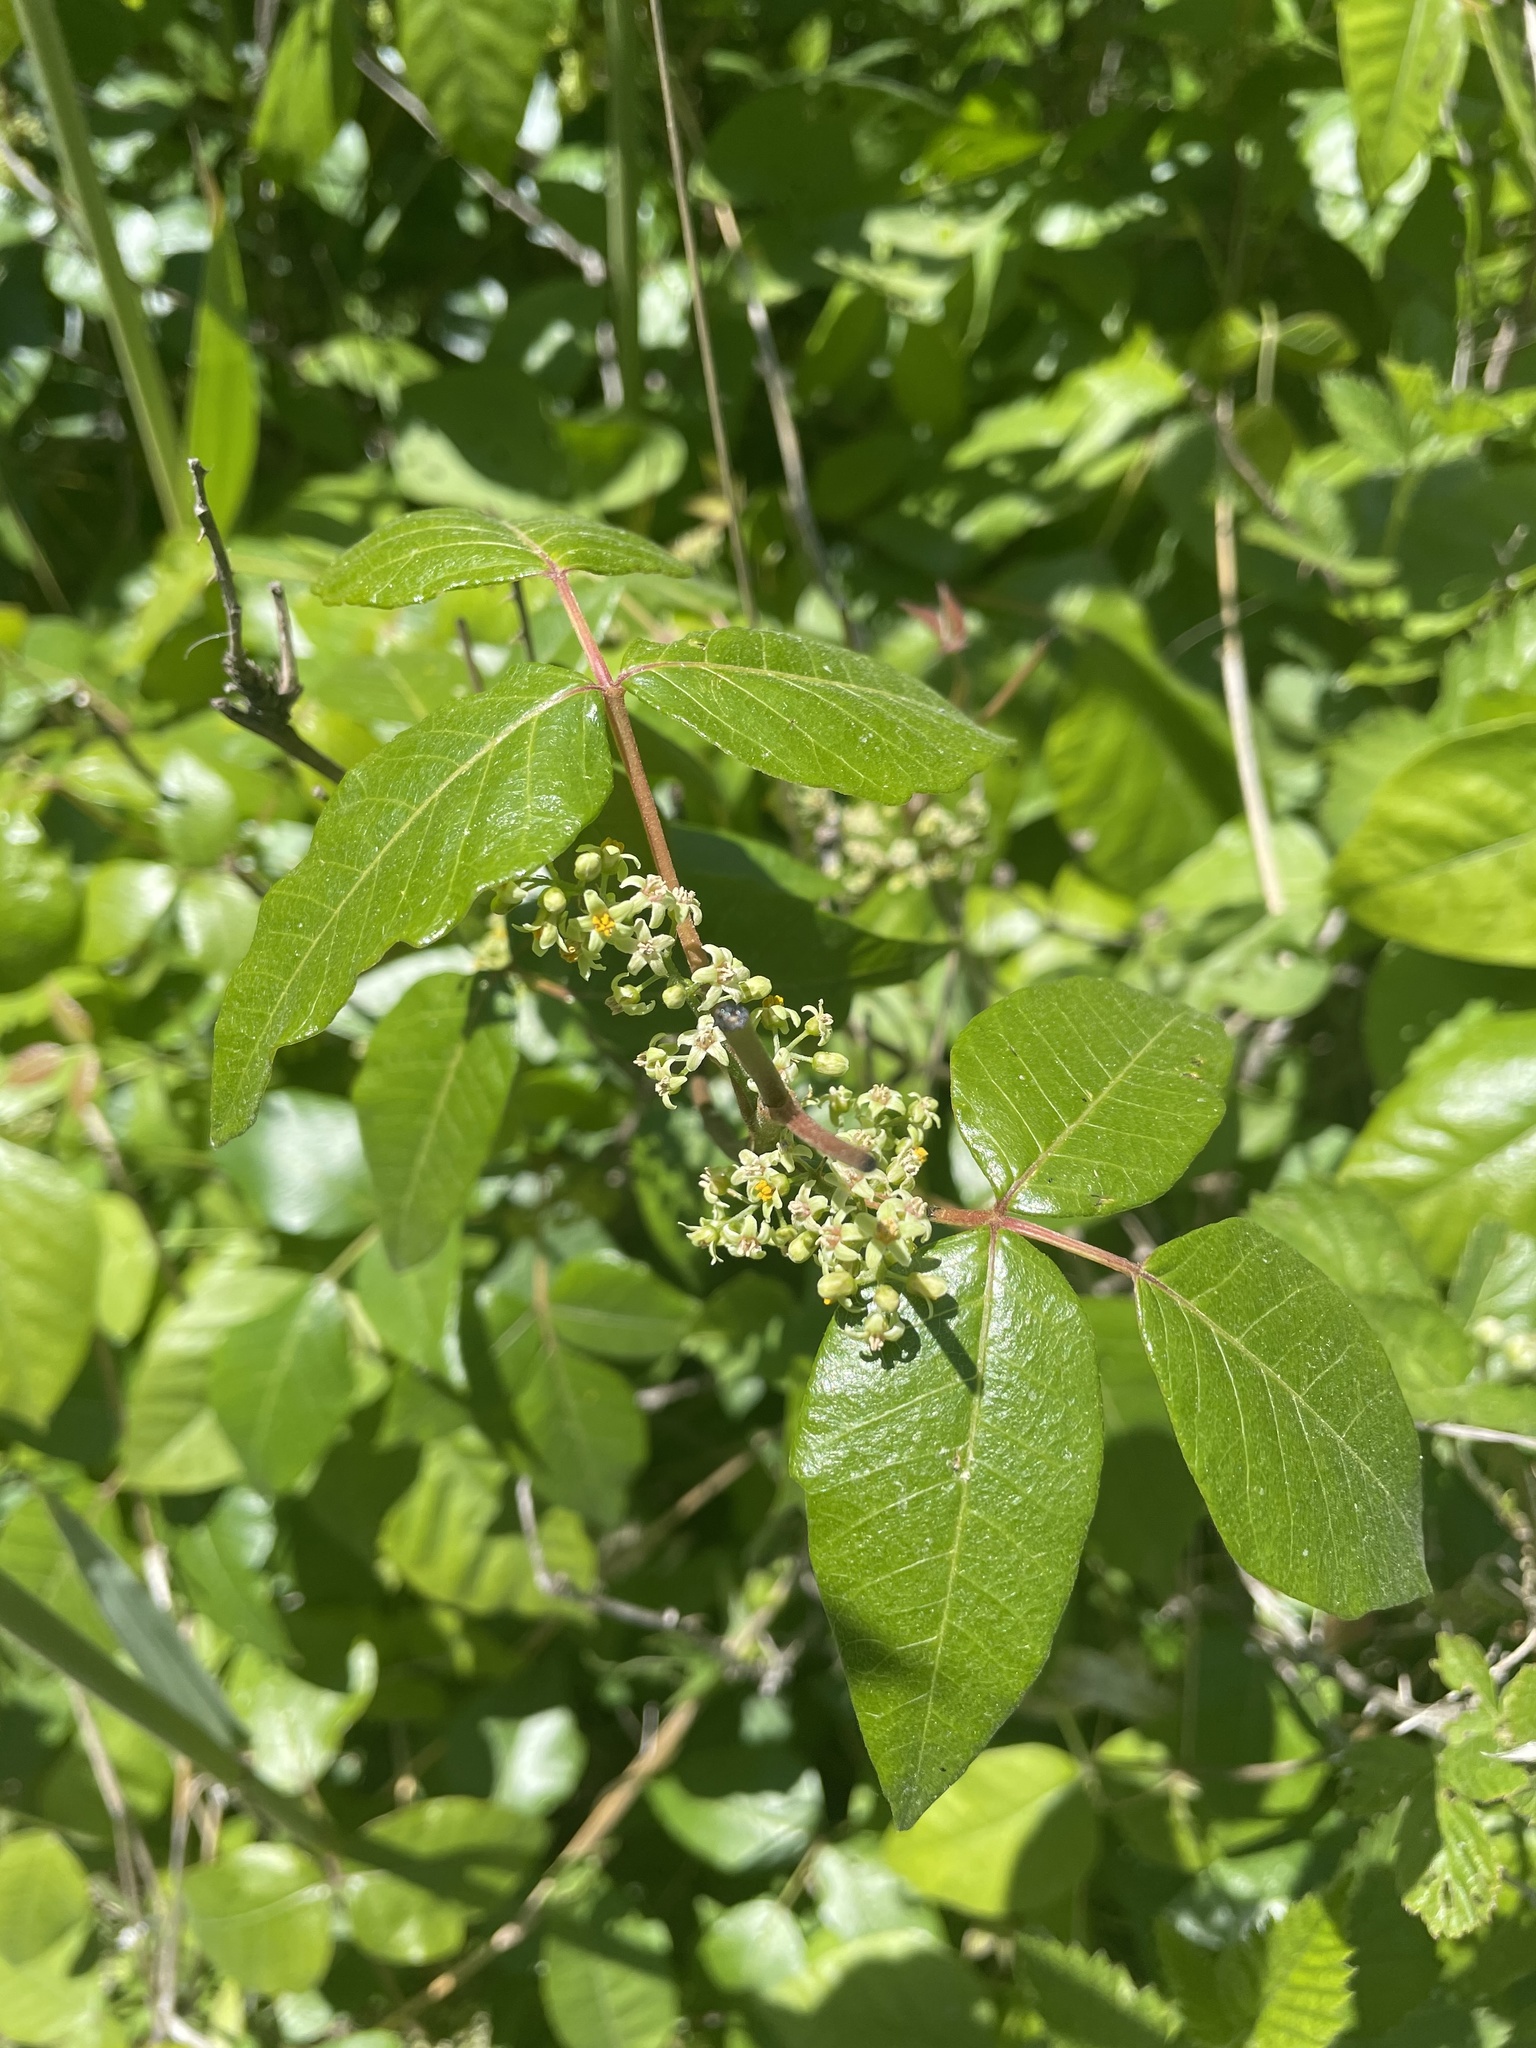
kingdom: Plantae
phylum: Tracheophyta
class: Magnoliopsida
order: Sapindales
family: Anacardiaceae
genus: Toxicodendron
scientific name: Toxicodendron radicans
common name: Poison ivy
